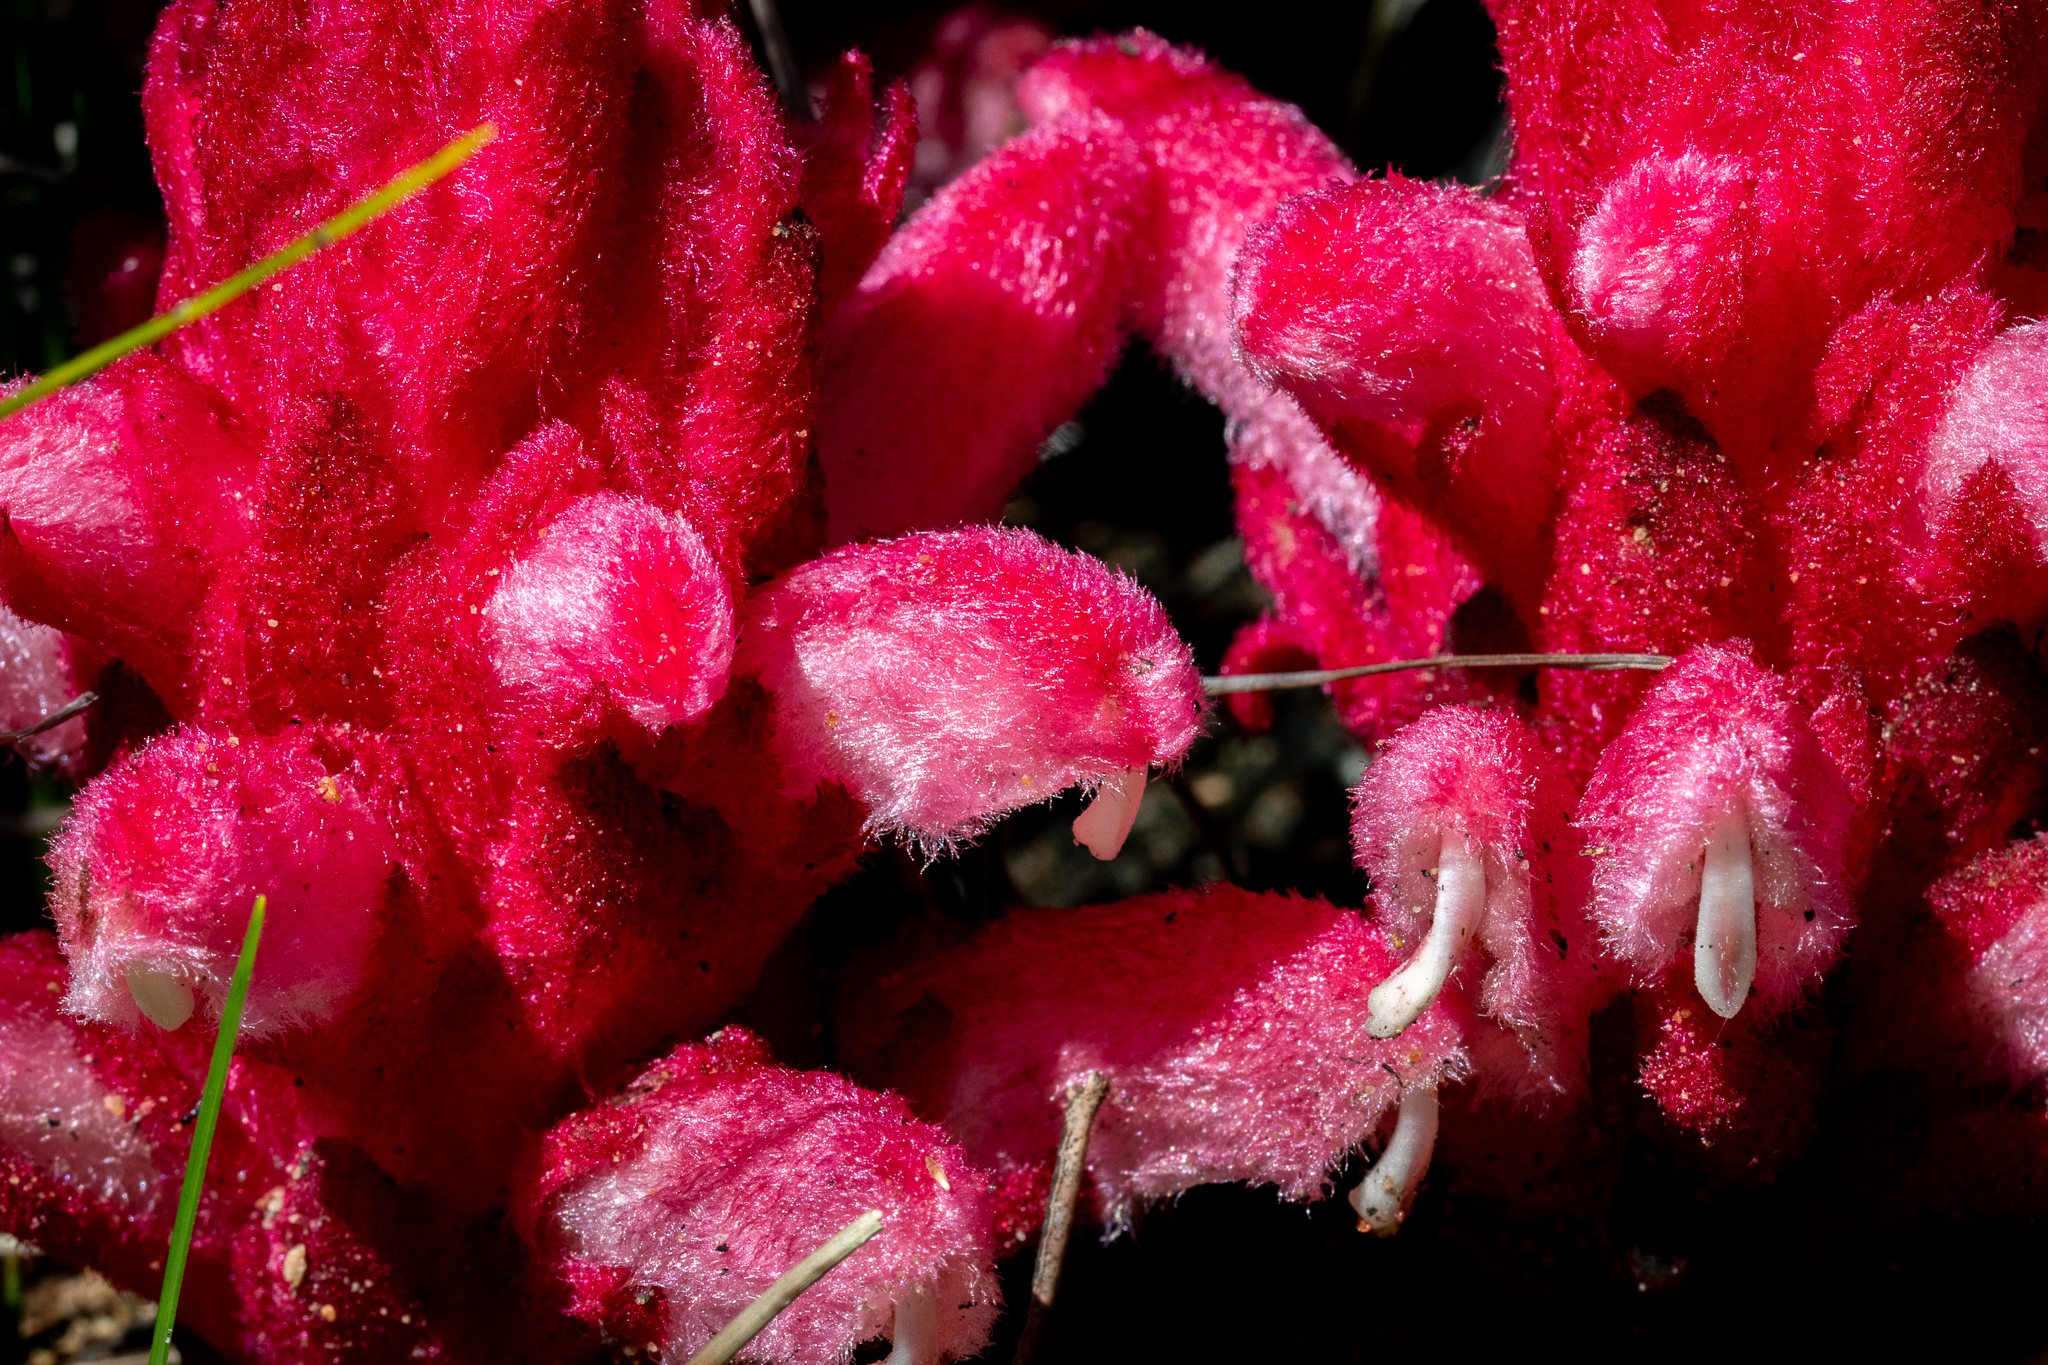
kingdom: Plantae
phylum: Tracheophyta
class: Magnoliopsida
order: Lamiales
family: Orobanchaceae
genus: Hyobanche
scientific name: Hyobanche sanguinea
